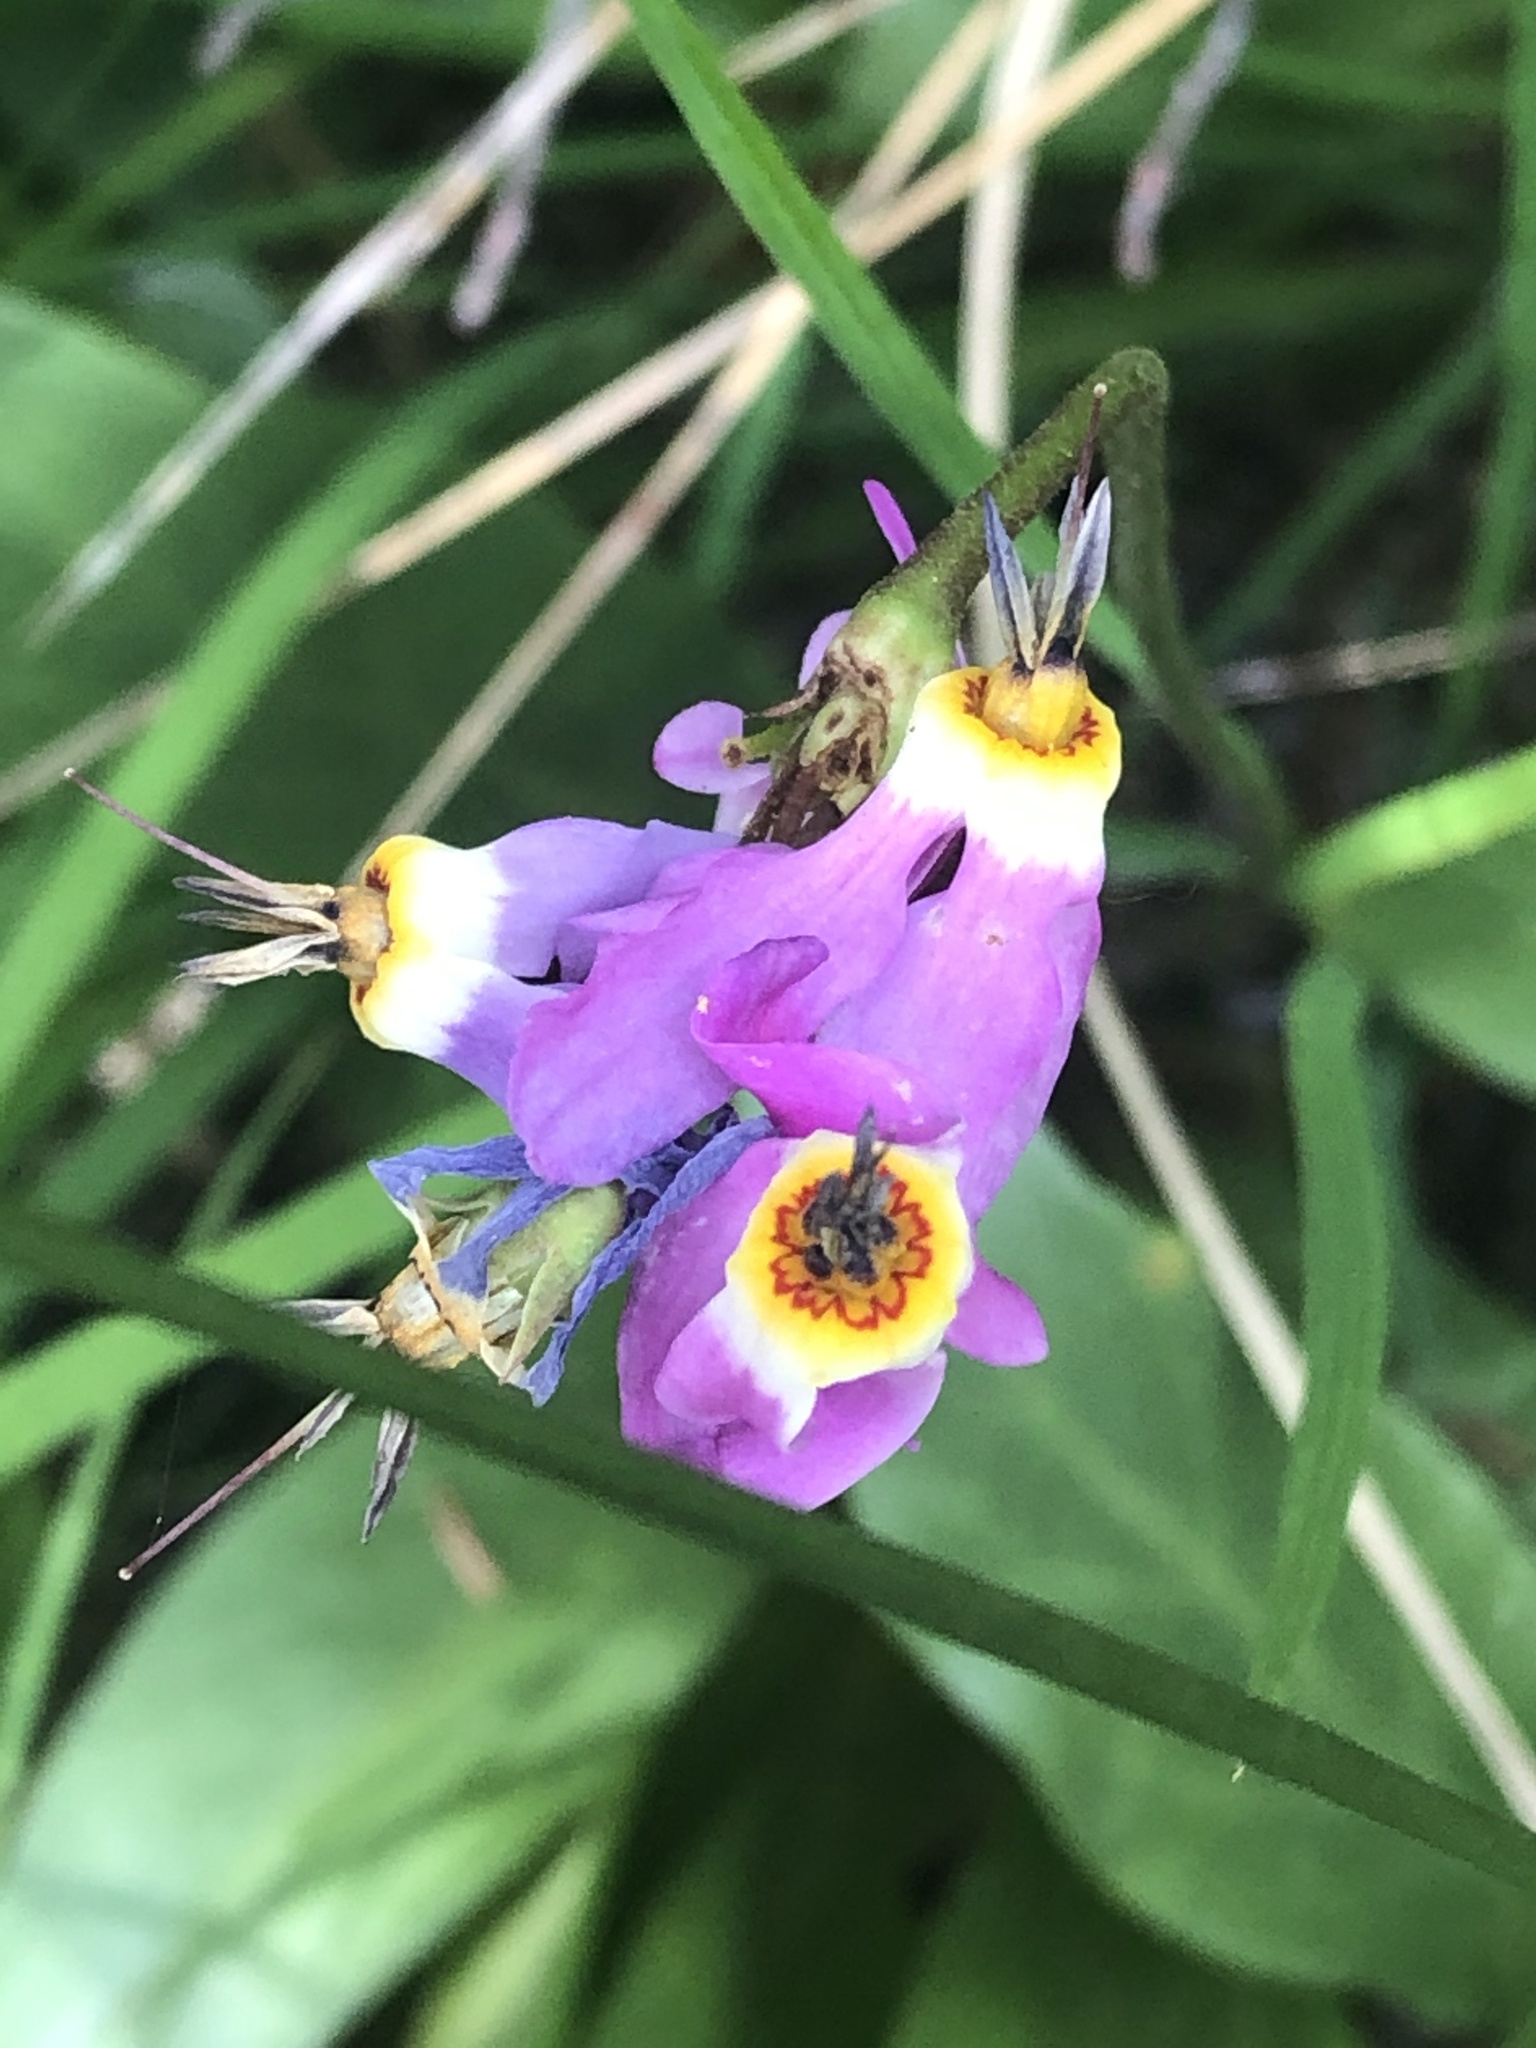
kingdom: Plantae
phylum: Tracheophyta
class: Magnoliopsida
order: Ericales
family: Primulaceae
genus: Dodecatheon
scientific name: Dodecatheon pulchellum
